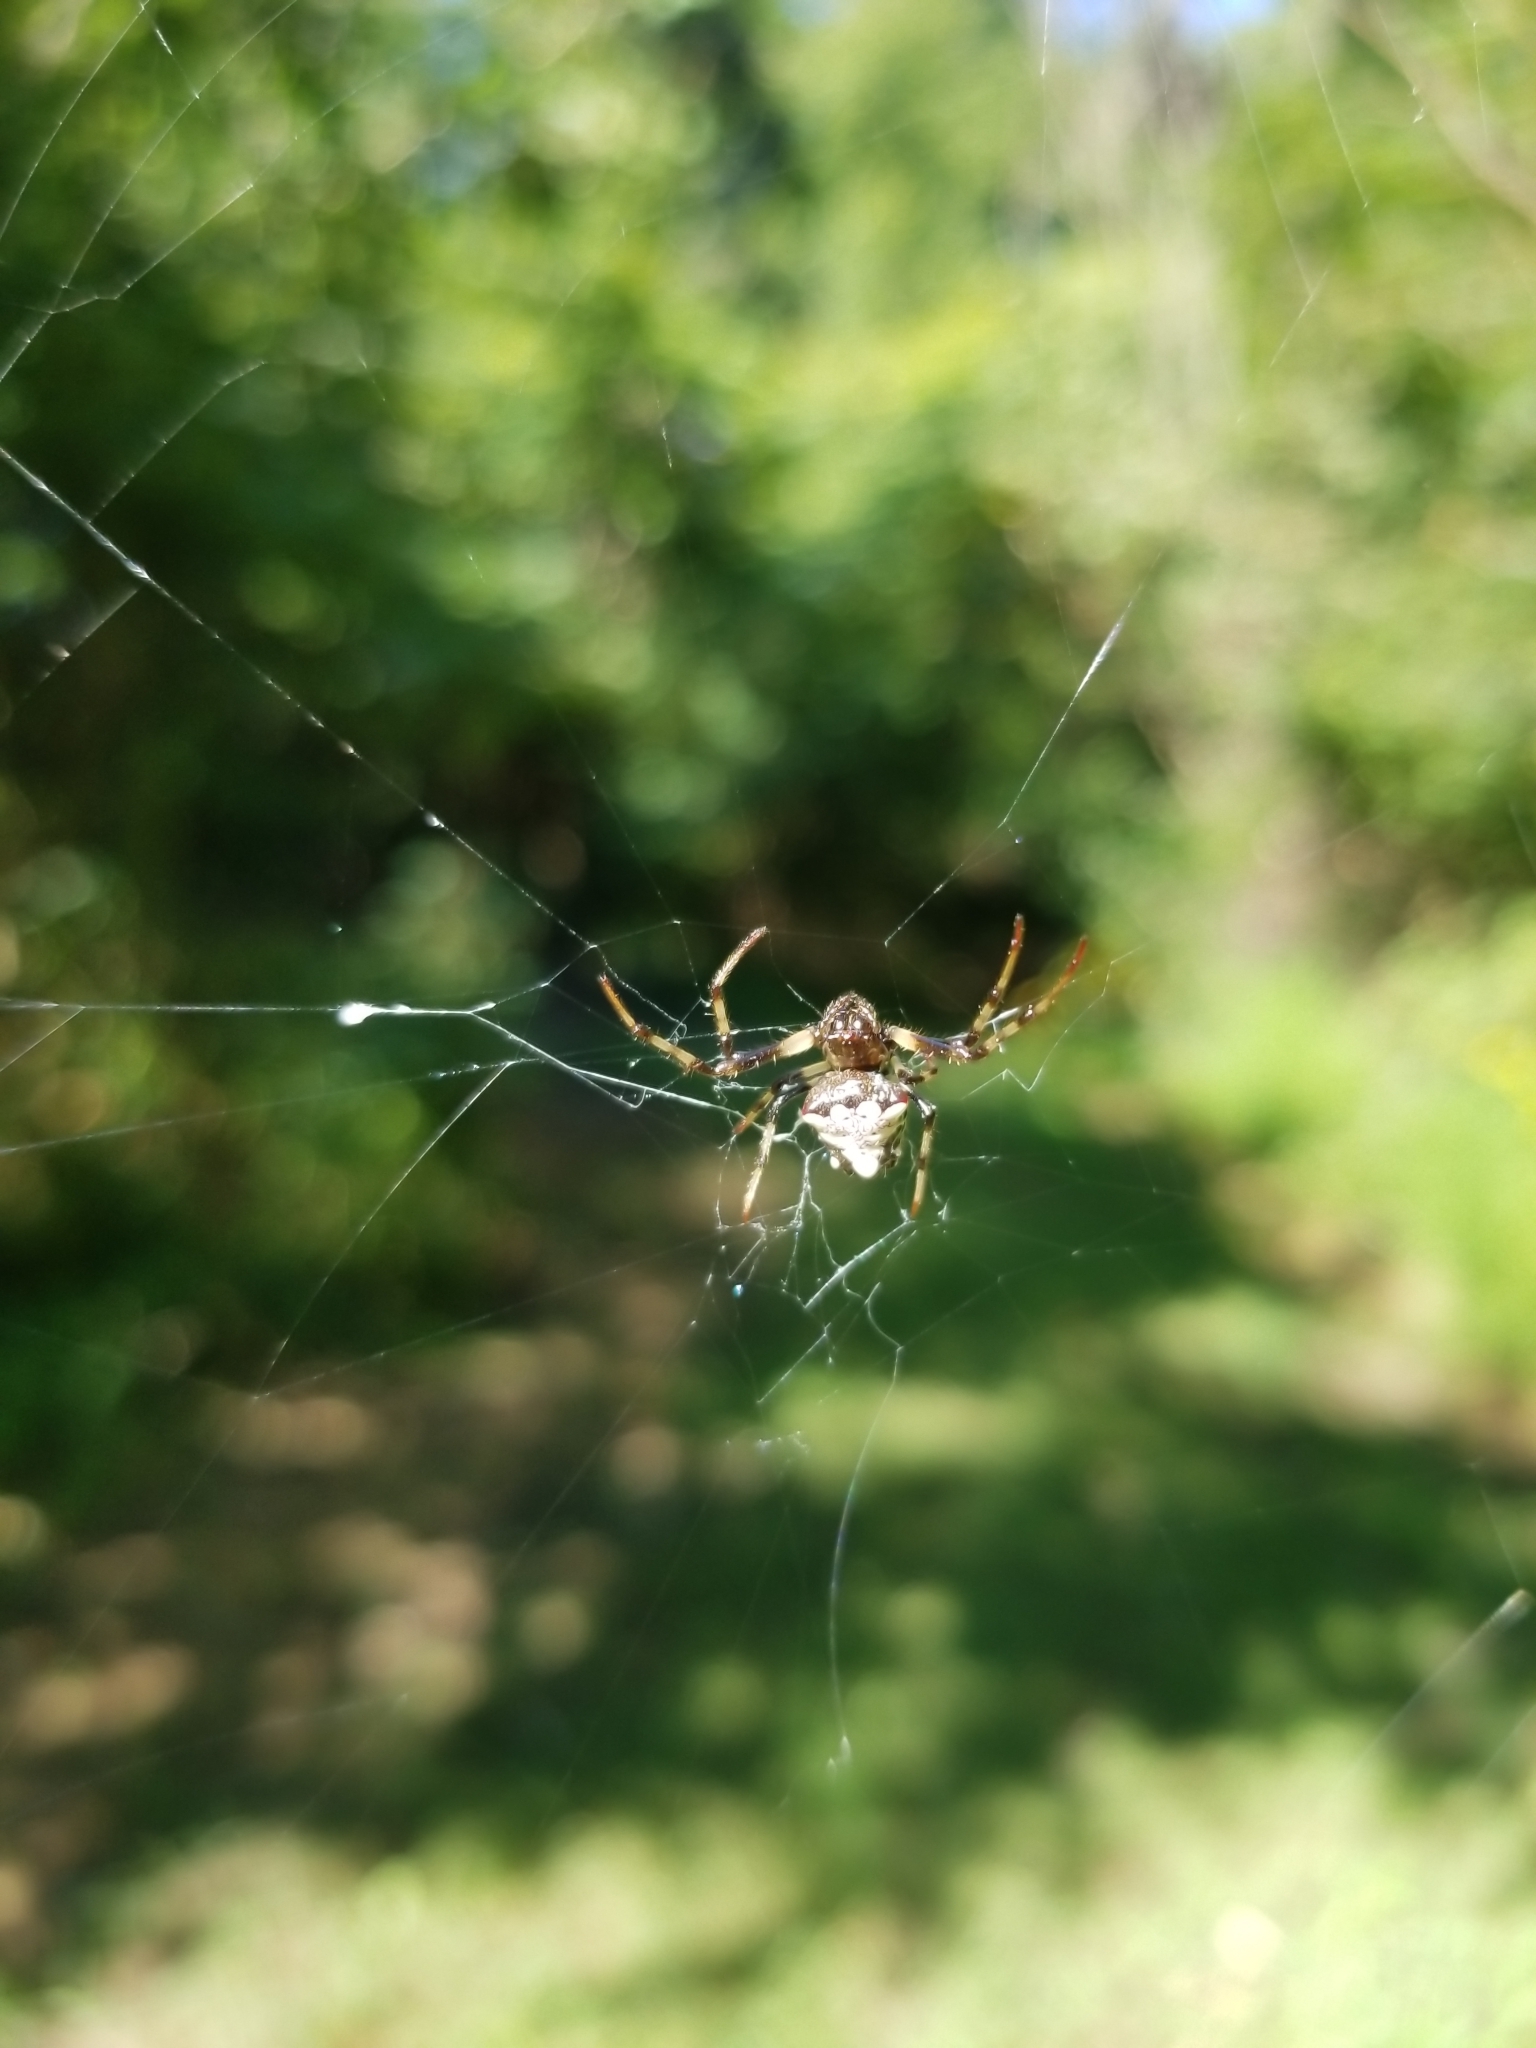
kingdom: Animalia
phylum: Arthropoda
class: Arachnida
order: Araneae
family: Araneidae
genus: Verrucosa
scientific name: Verrucosa arenata
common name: Orb weavers
